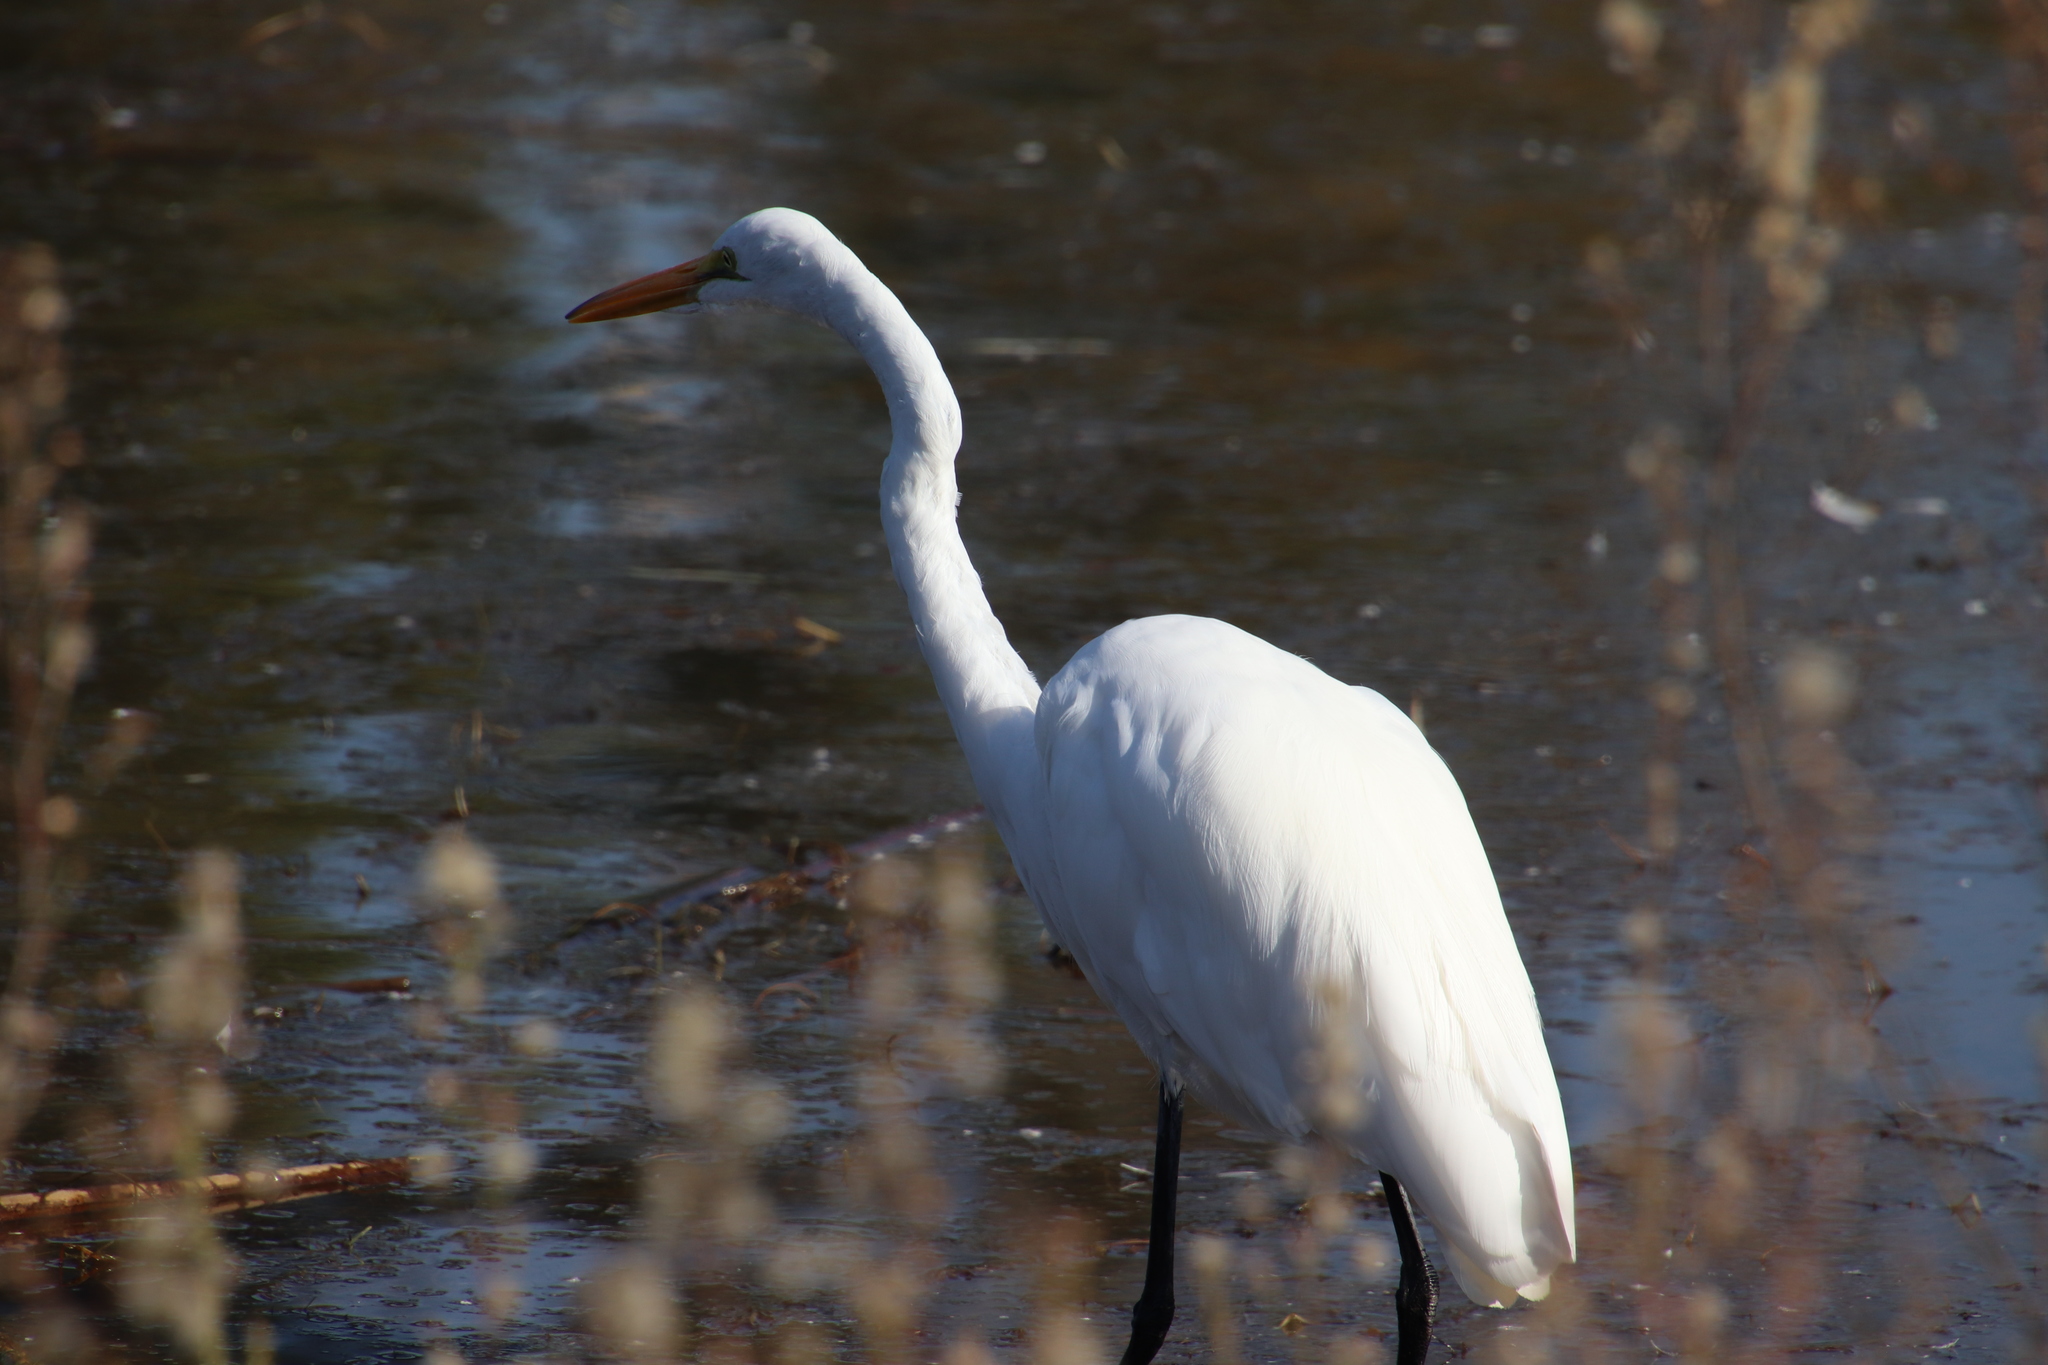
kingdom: Animalia
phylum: Chordata
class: Aves
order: Pelecaniformes
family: Ardeidae
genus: Ardea
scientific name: Ardea alba
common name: Great egret
